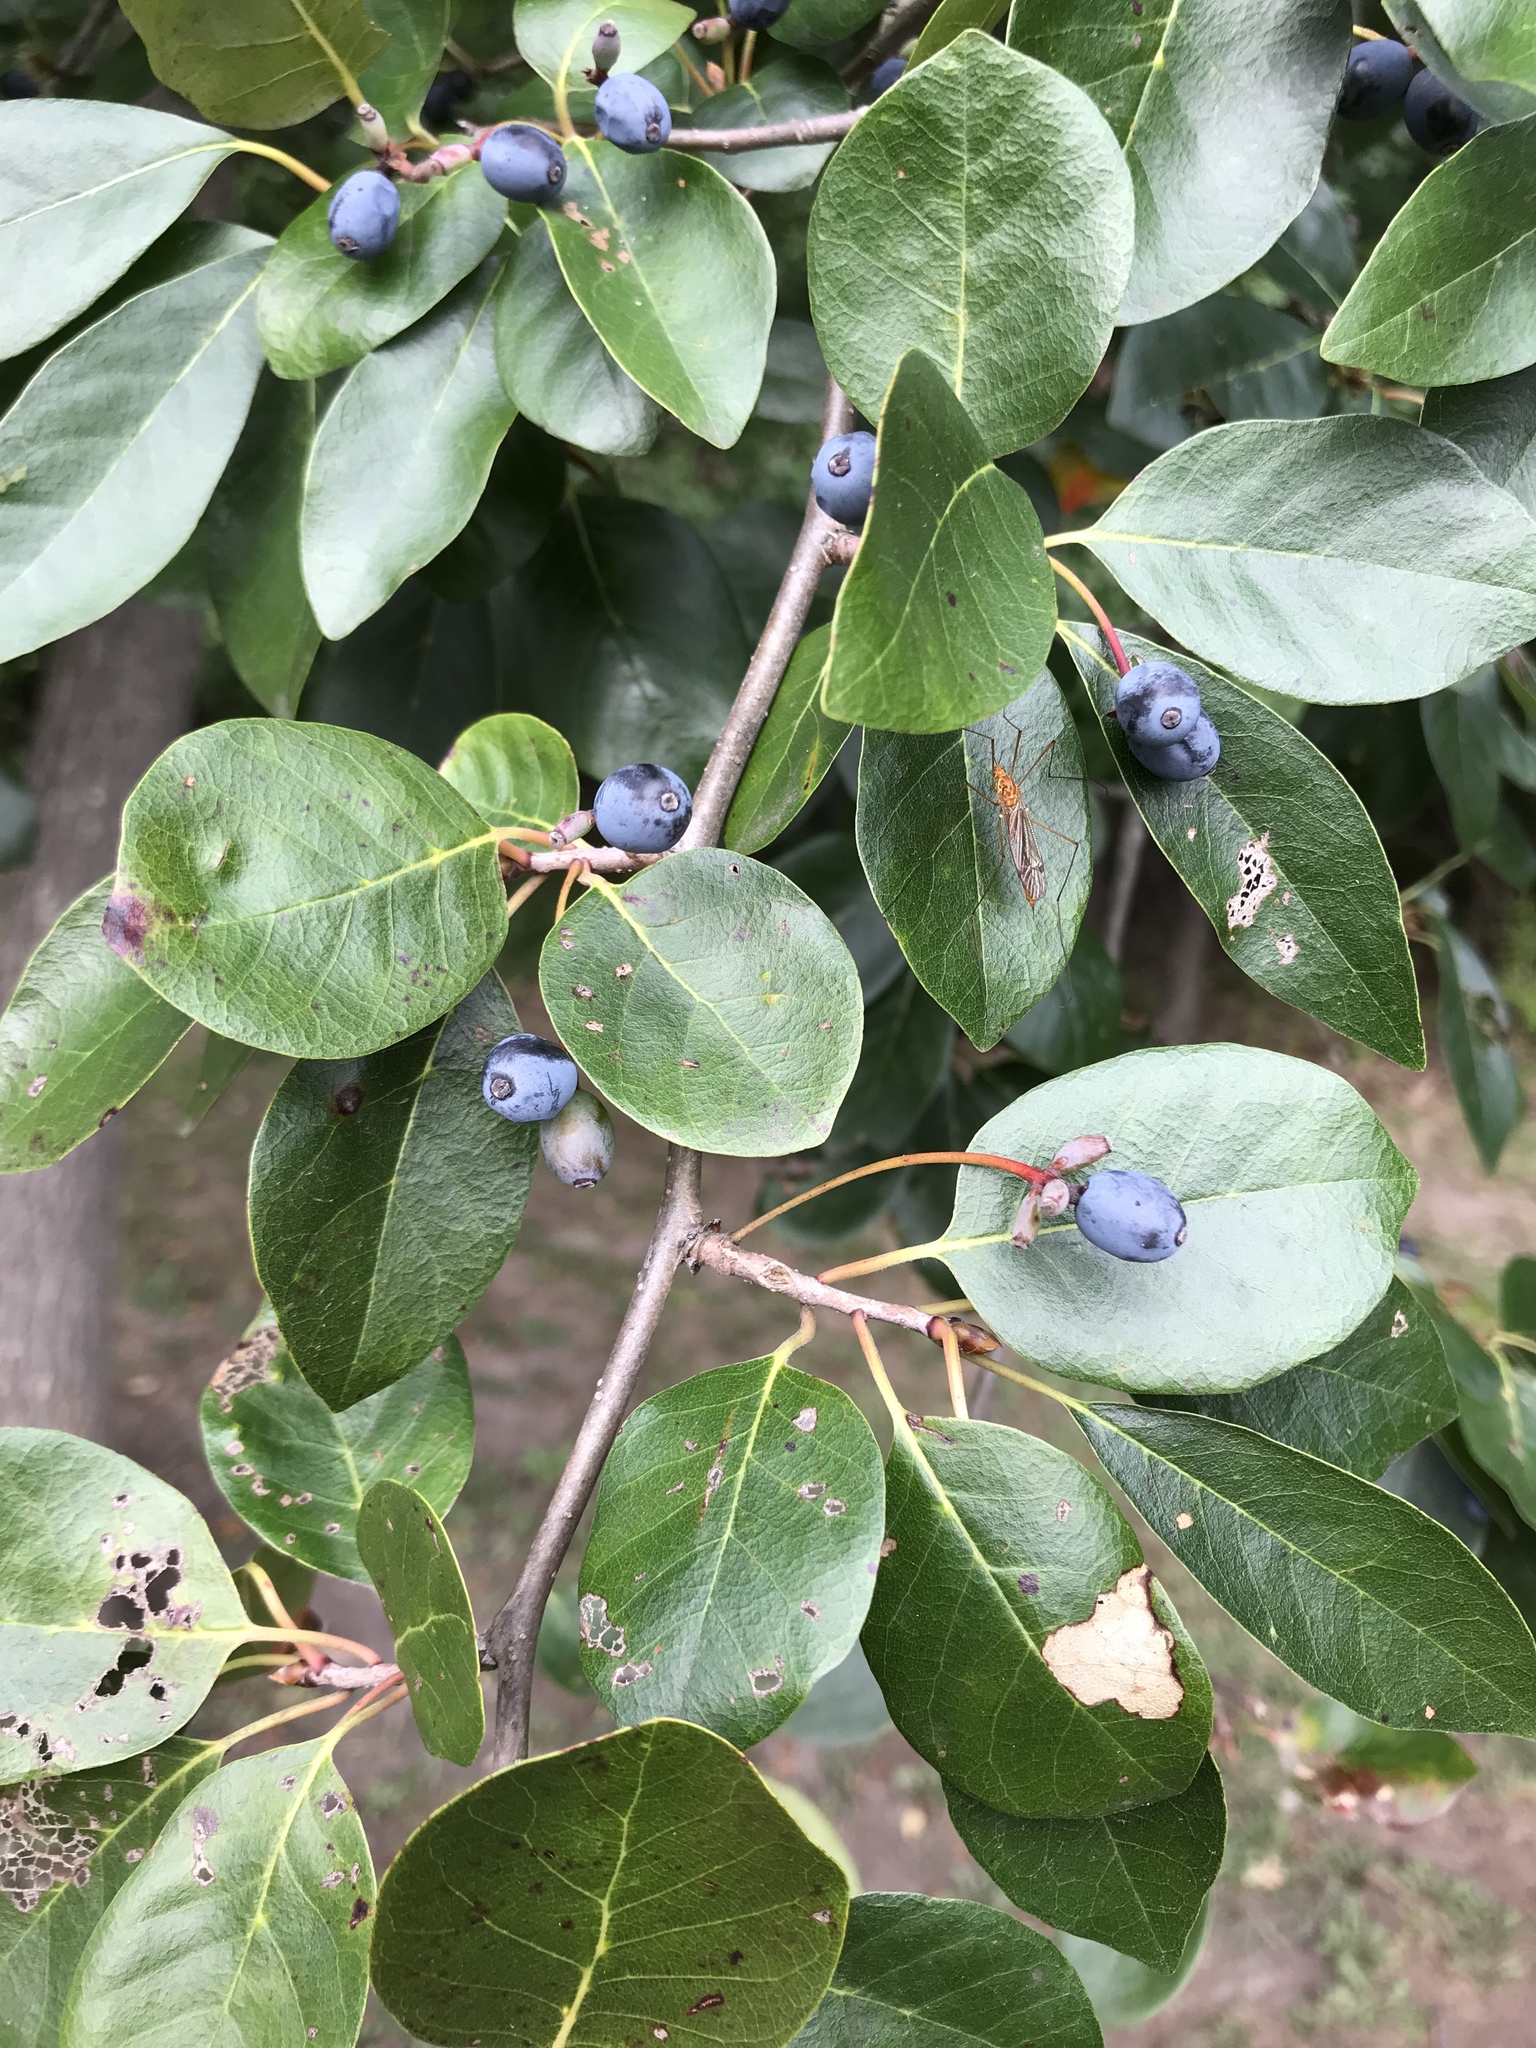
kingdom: Plantae
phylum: Tracheophyta
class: Magnoliopsida
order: Cornales
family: Nyssaceae
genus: Nyssa
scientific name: Nyssa sylvatica
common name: Black tupelo
